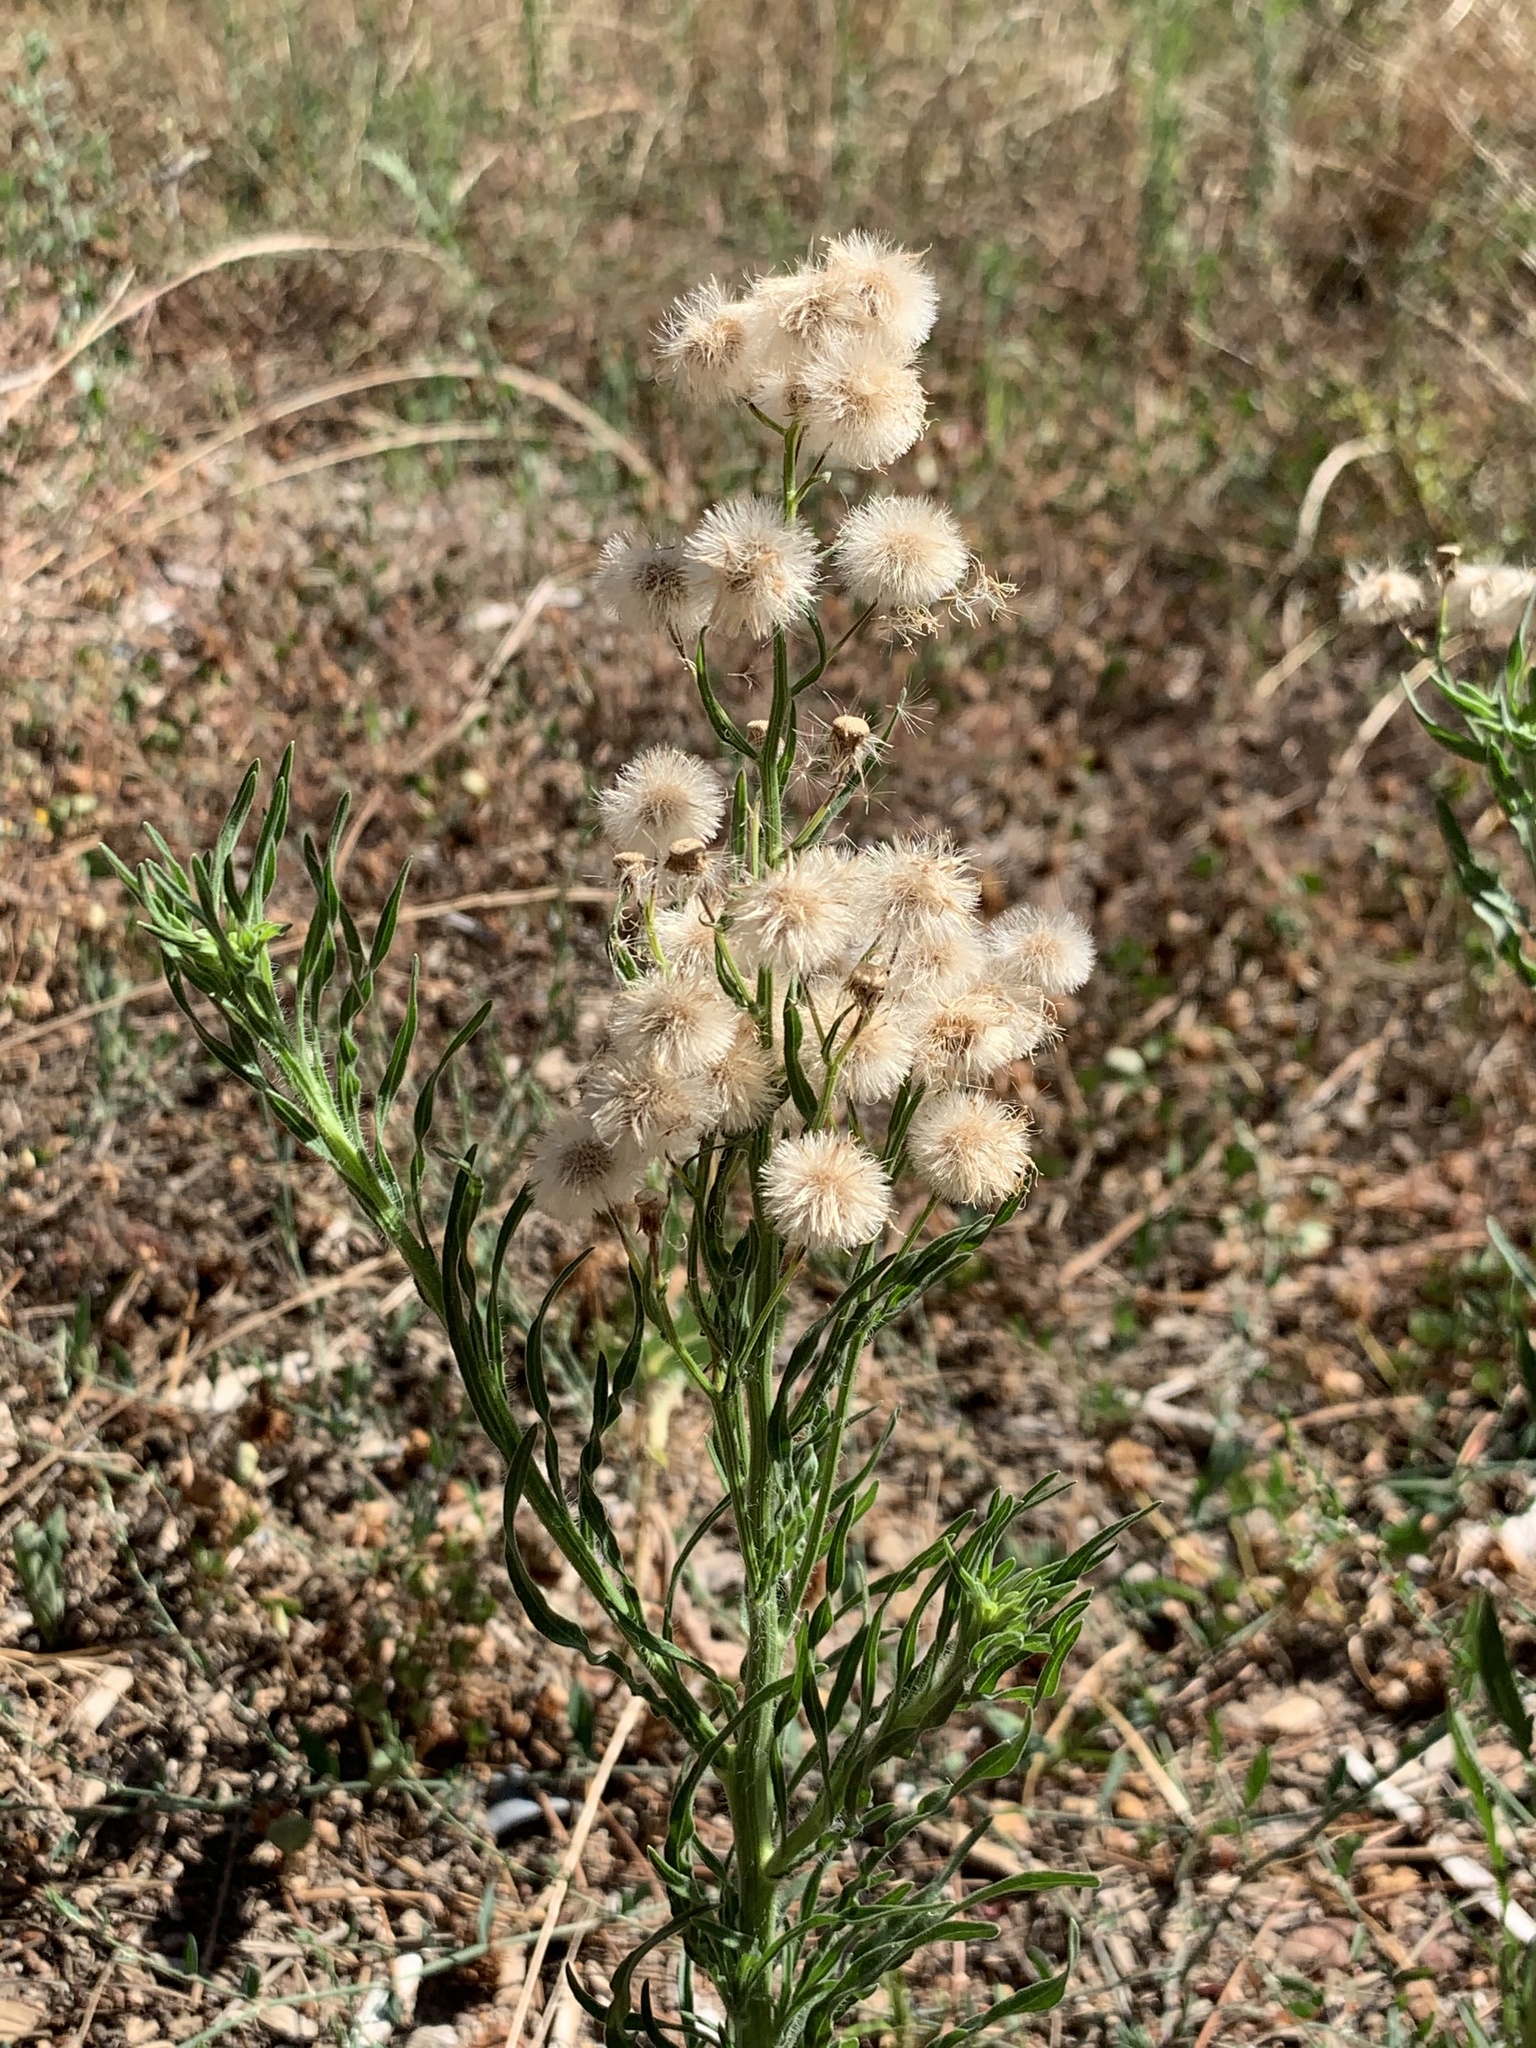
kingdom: Plantae
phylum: Tracheophyta
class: Magnoliopsida
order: Asterales
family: Asteraceae
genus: Erigeron
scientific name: Erigeron bonariensis
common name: Argentine fleabane
